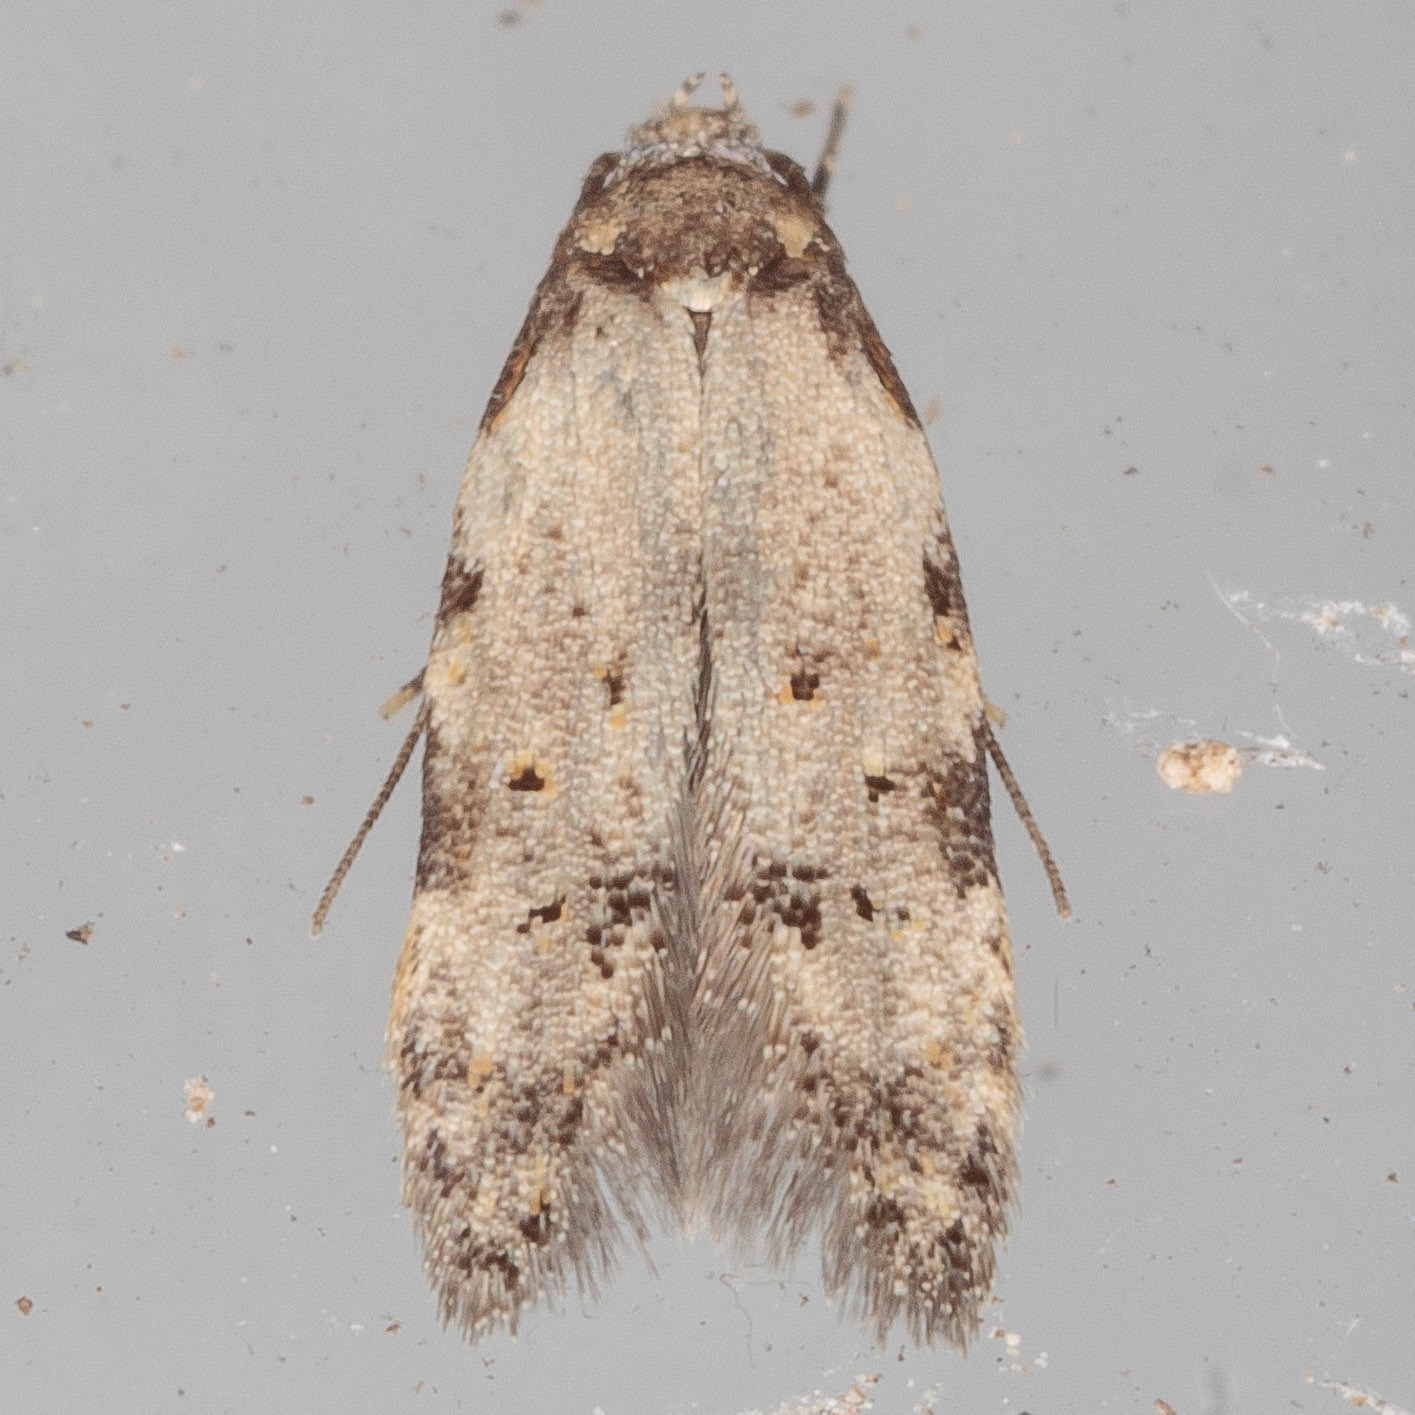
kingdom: Animalia
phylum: Arthropoda
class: Insecta
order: Lepidoptera
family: Autostichidae
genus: Taygete
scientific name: Taygete attributella
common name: Triangle-marked twirler moth
